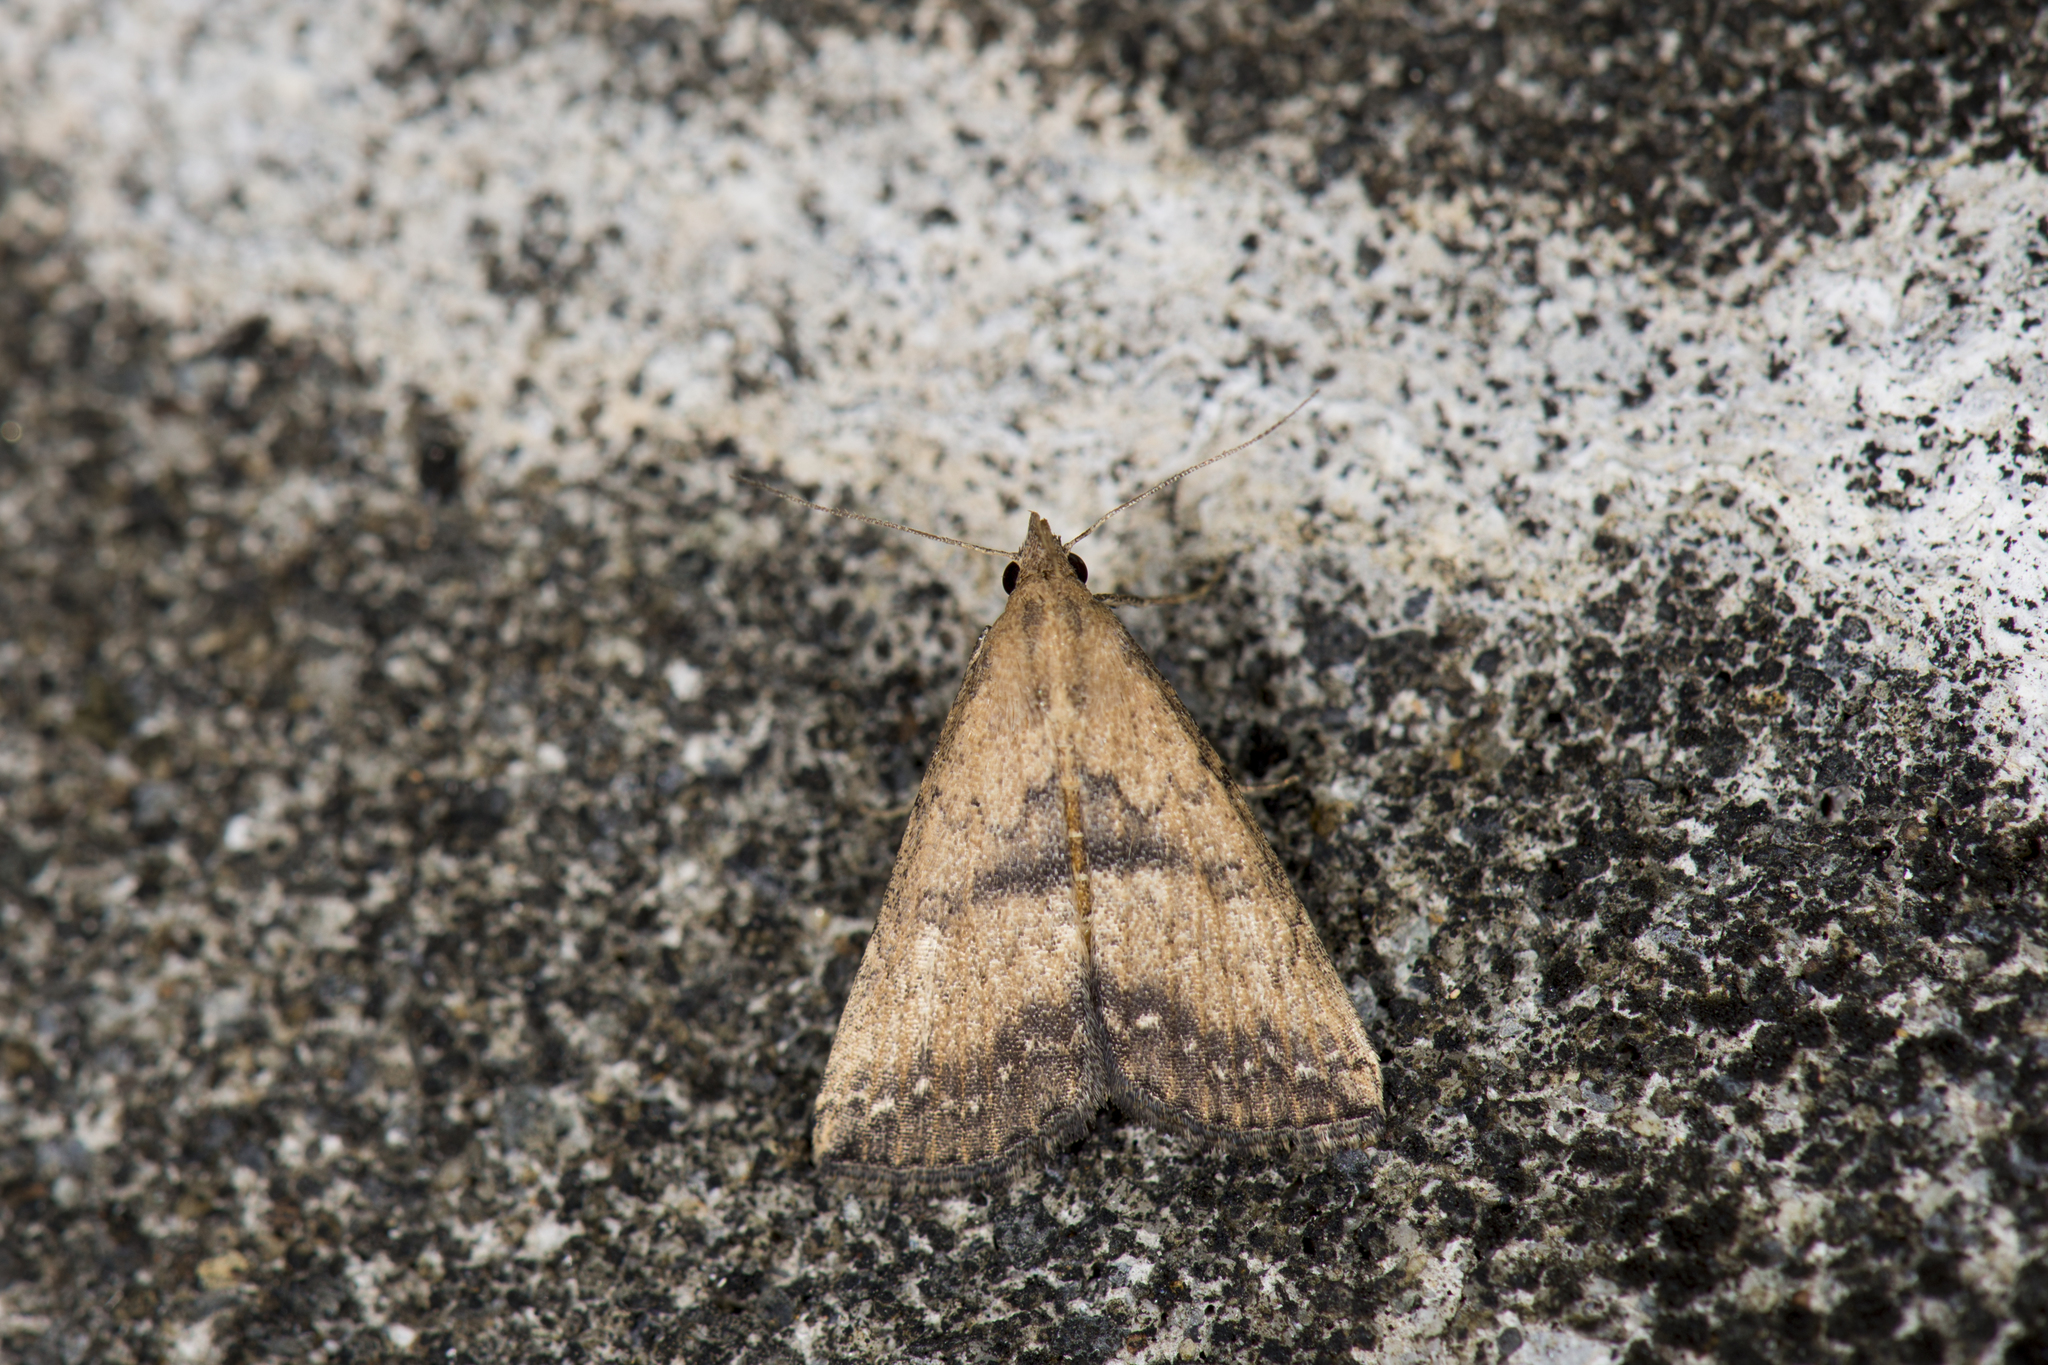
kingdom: Animalia
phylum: Arthropoda
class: Insecta
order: Lepidoptera
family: Erebidae
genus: Progonia
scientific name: Progonia kurosawai
